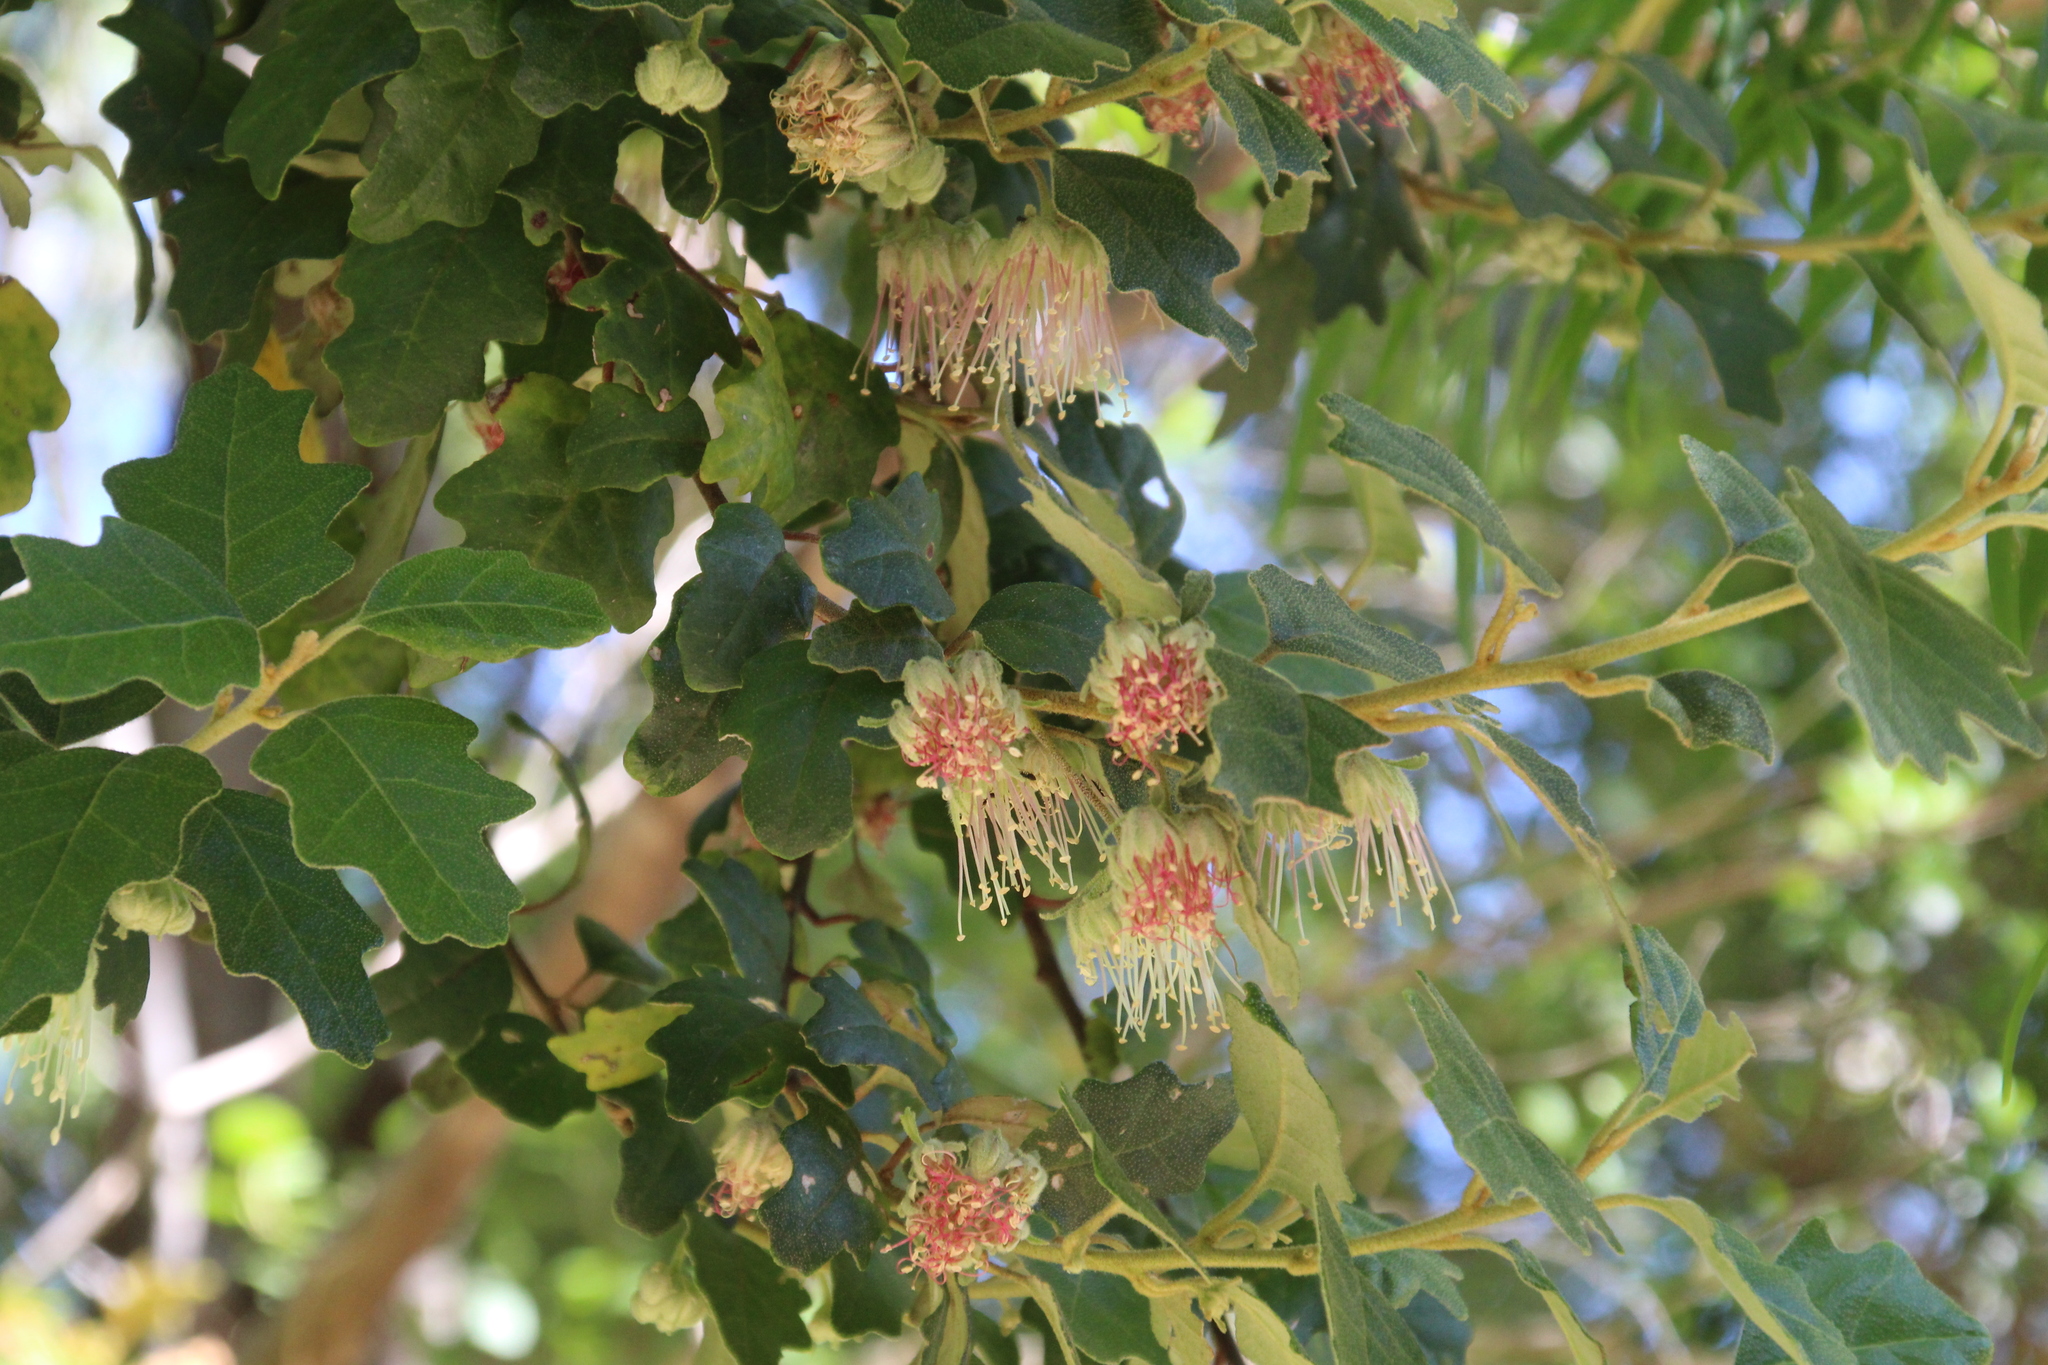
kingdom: Plantae
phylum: Tracheophyta
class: Magnoliopsida
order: Sapindales
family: Rutaceae
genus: Chorilaena
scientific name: Chorilaena quercifolia
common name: Wild hop
